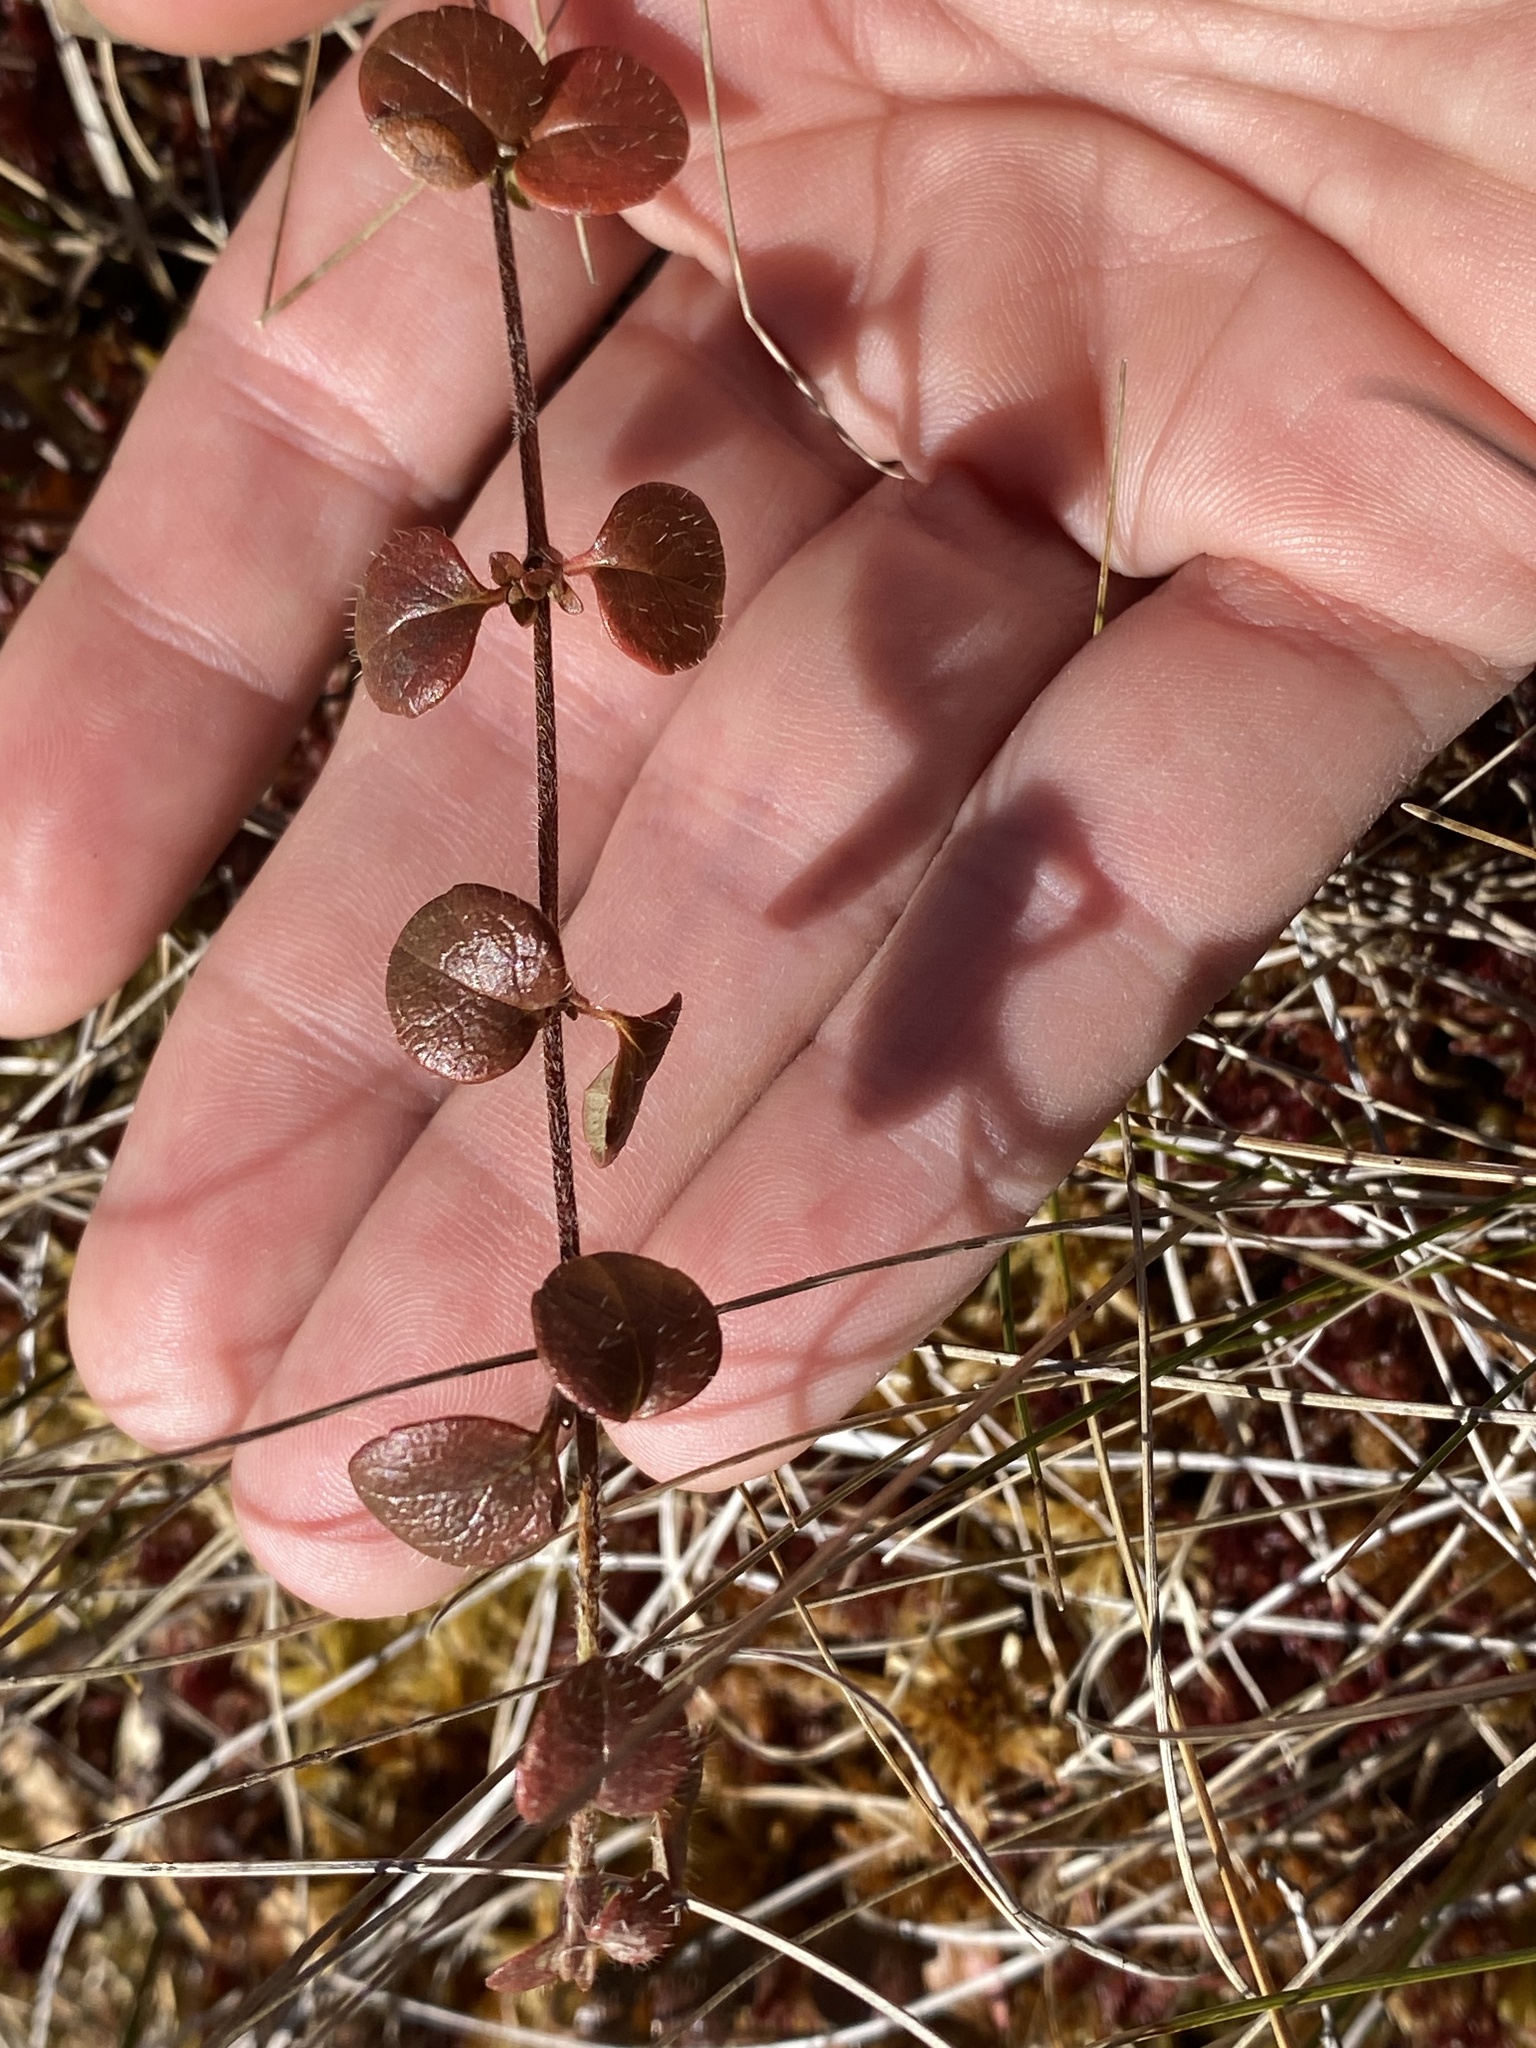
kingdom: Plantae
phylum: Tracheophyta
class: Magnoliopsida
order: Dipsacales
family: Caprifoliaceae
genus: Linnaea
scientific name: Linnaea borealis
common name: Twinflower
